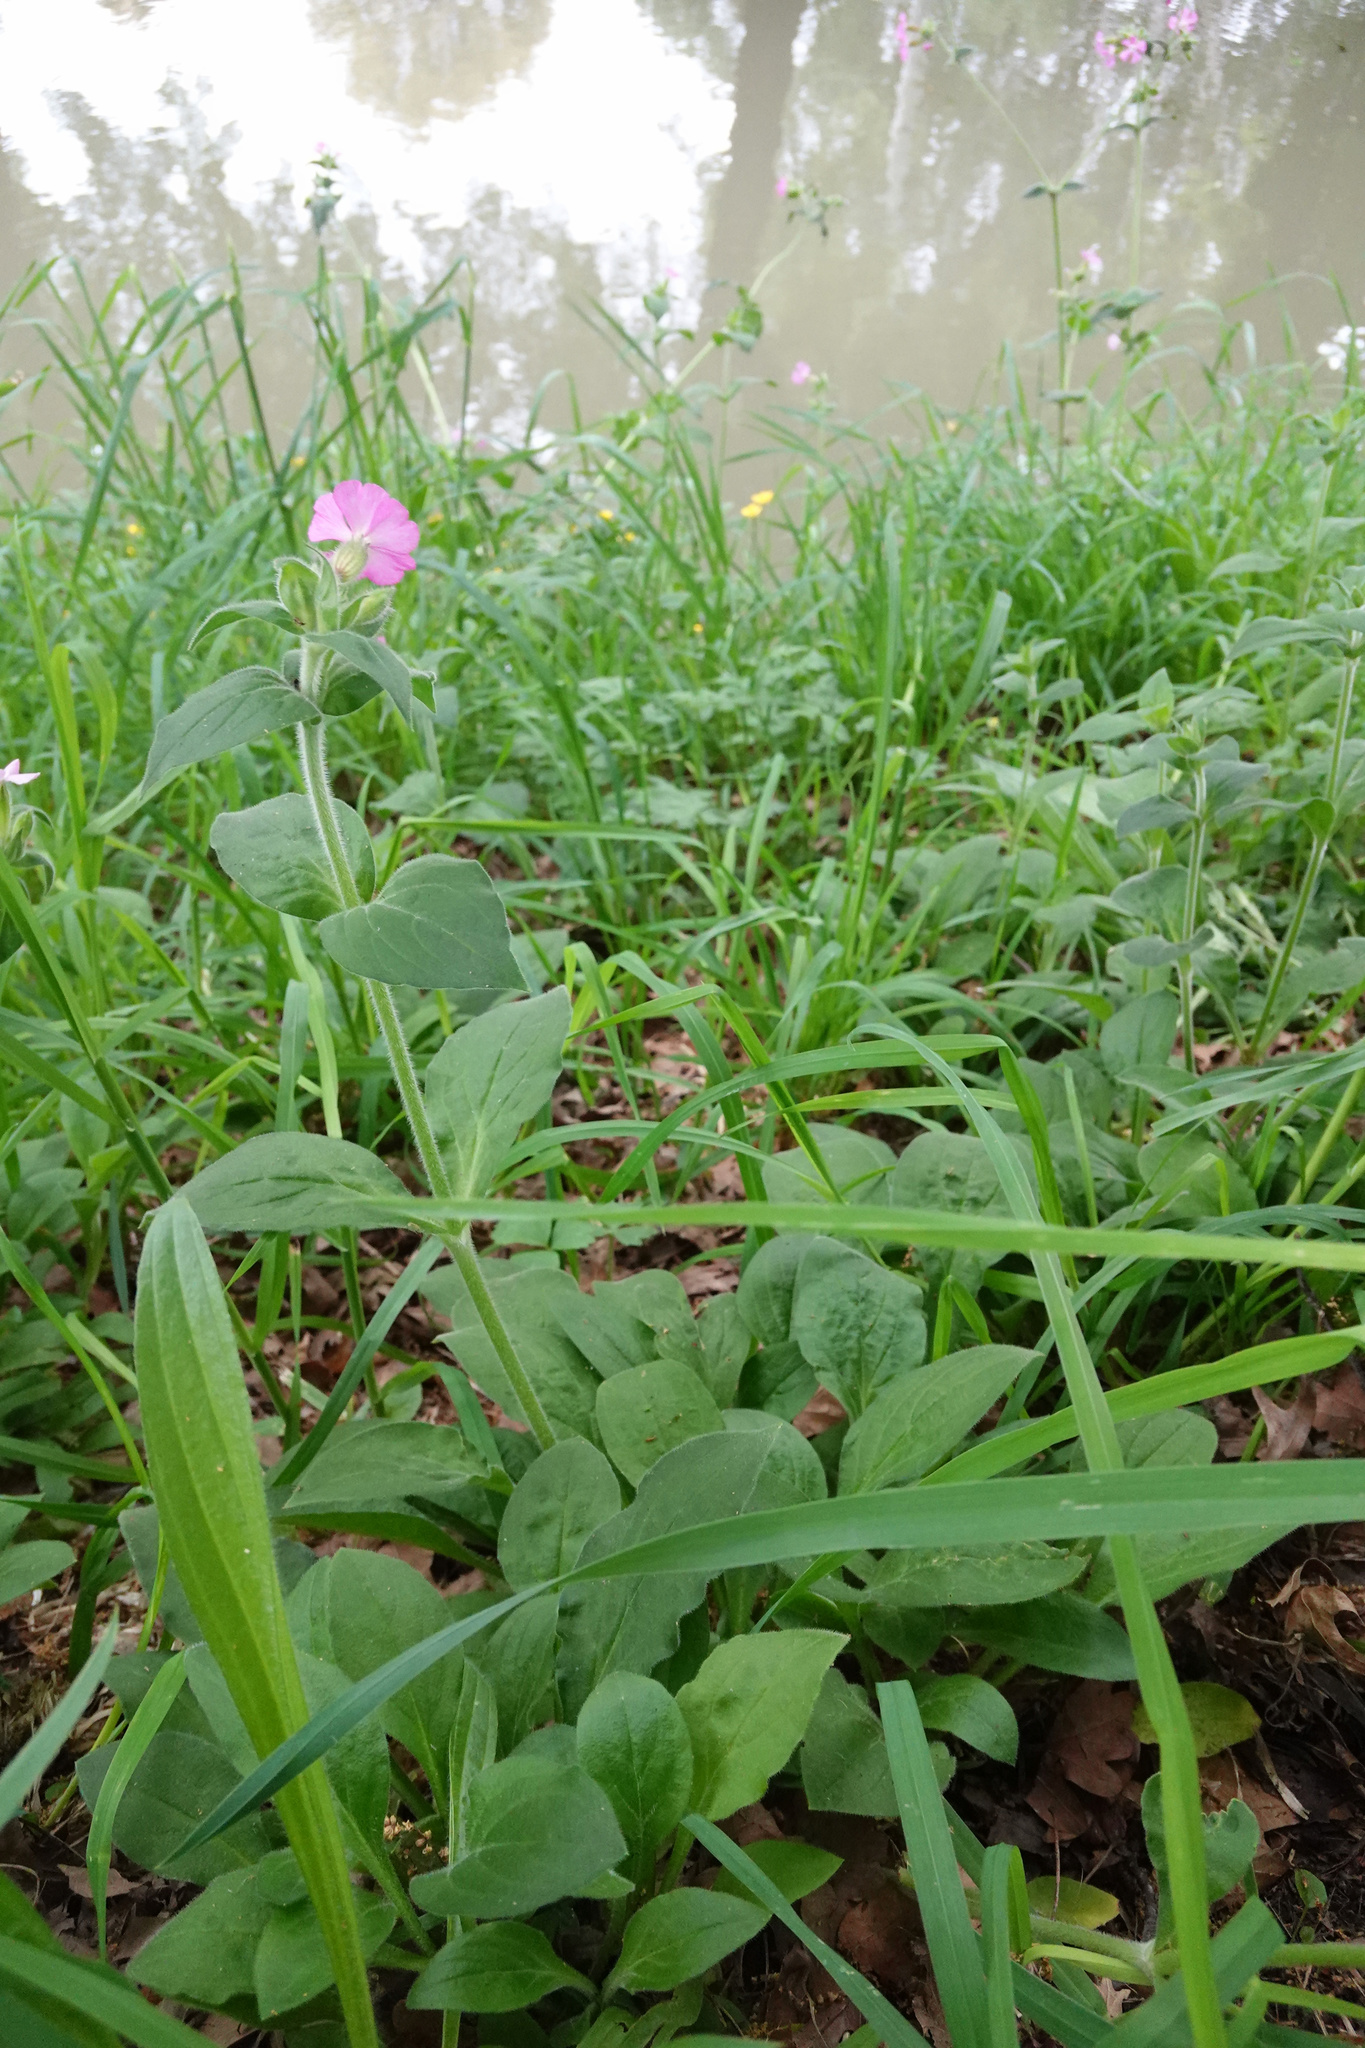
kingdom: Plantae
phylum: Tracheophyta
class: Magnoliopsida
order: Caryophyllales
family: Caryophyllaceae
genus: Silene
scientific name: Silene dioica
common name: Red campion
